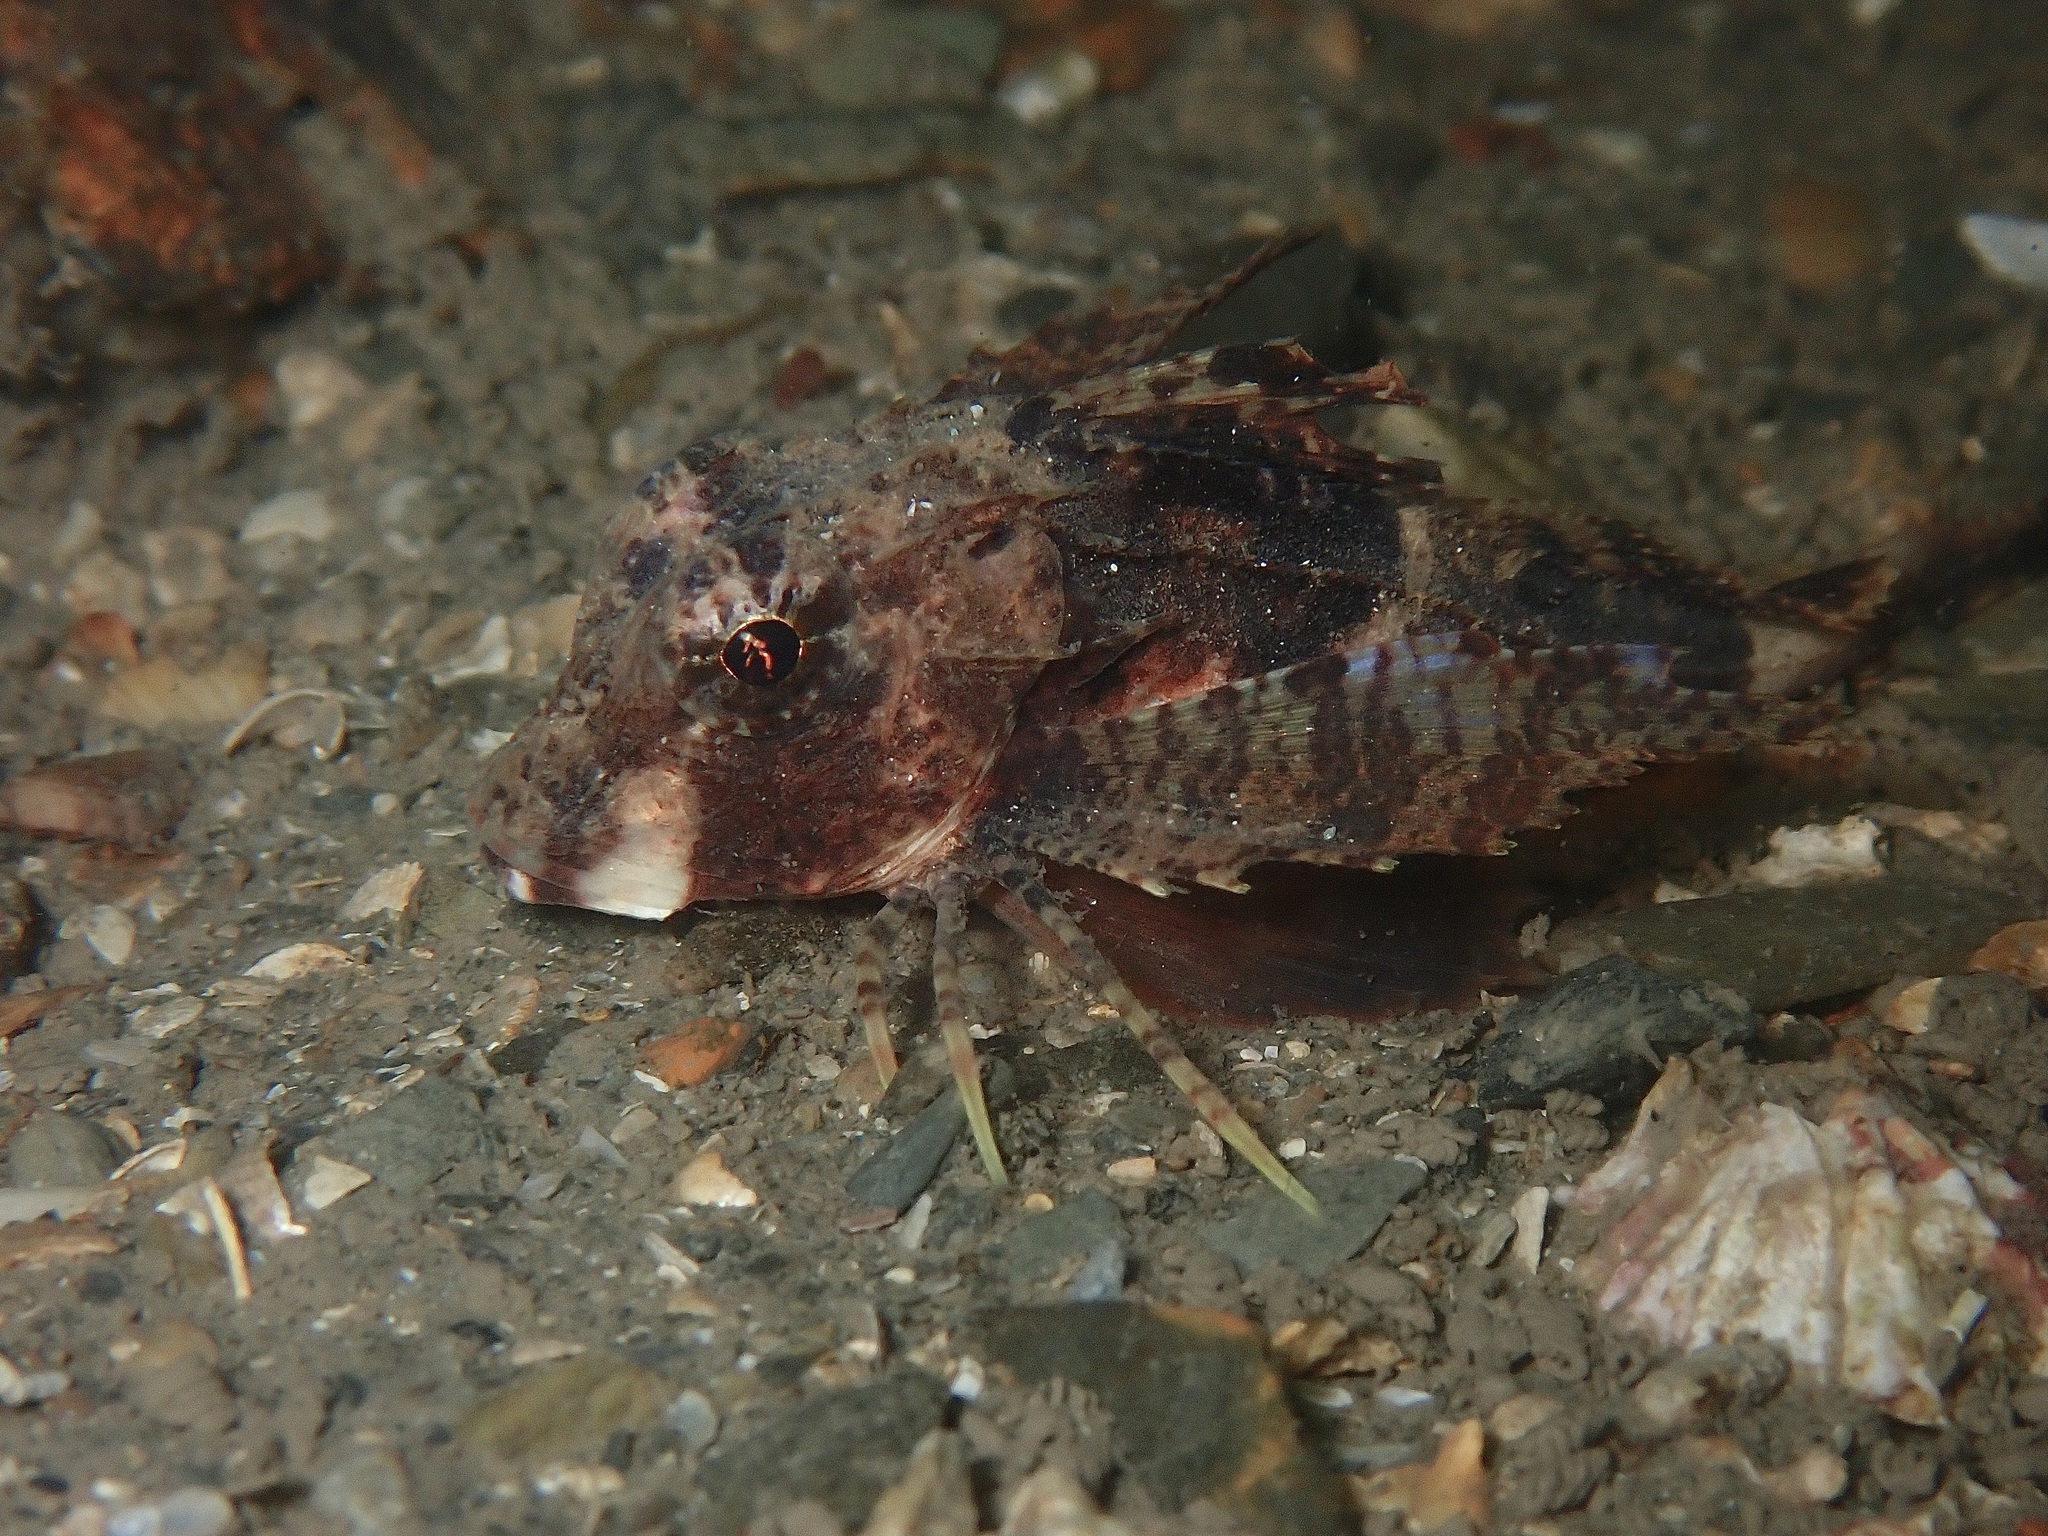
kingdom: Animalia
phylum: Chordata
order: Scorpaeniformes
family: Triglidae
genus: Chelidonichthys
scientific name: Chelidonichthys lastoviza
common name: Streaked gurnard
